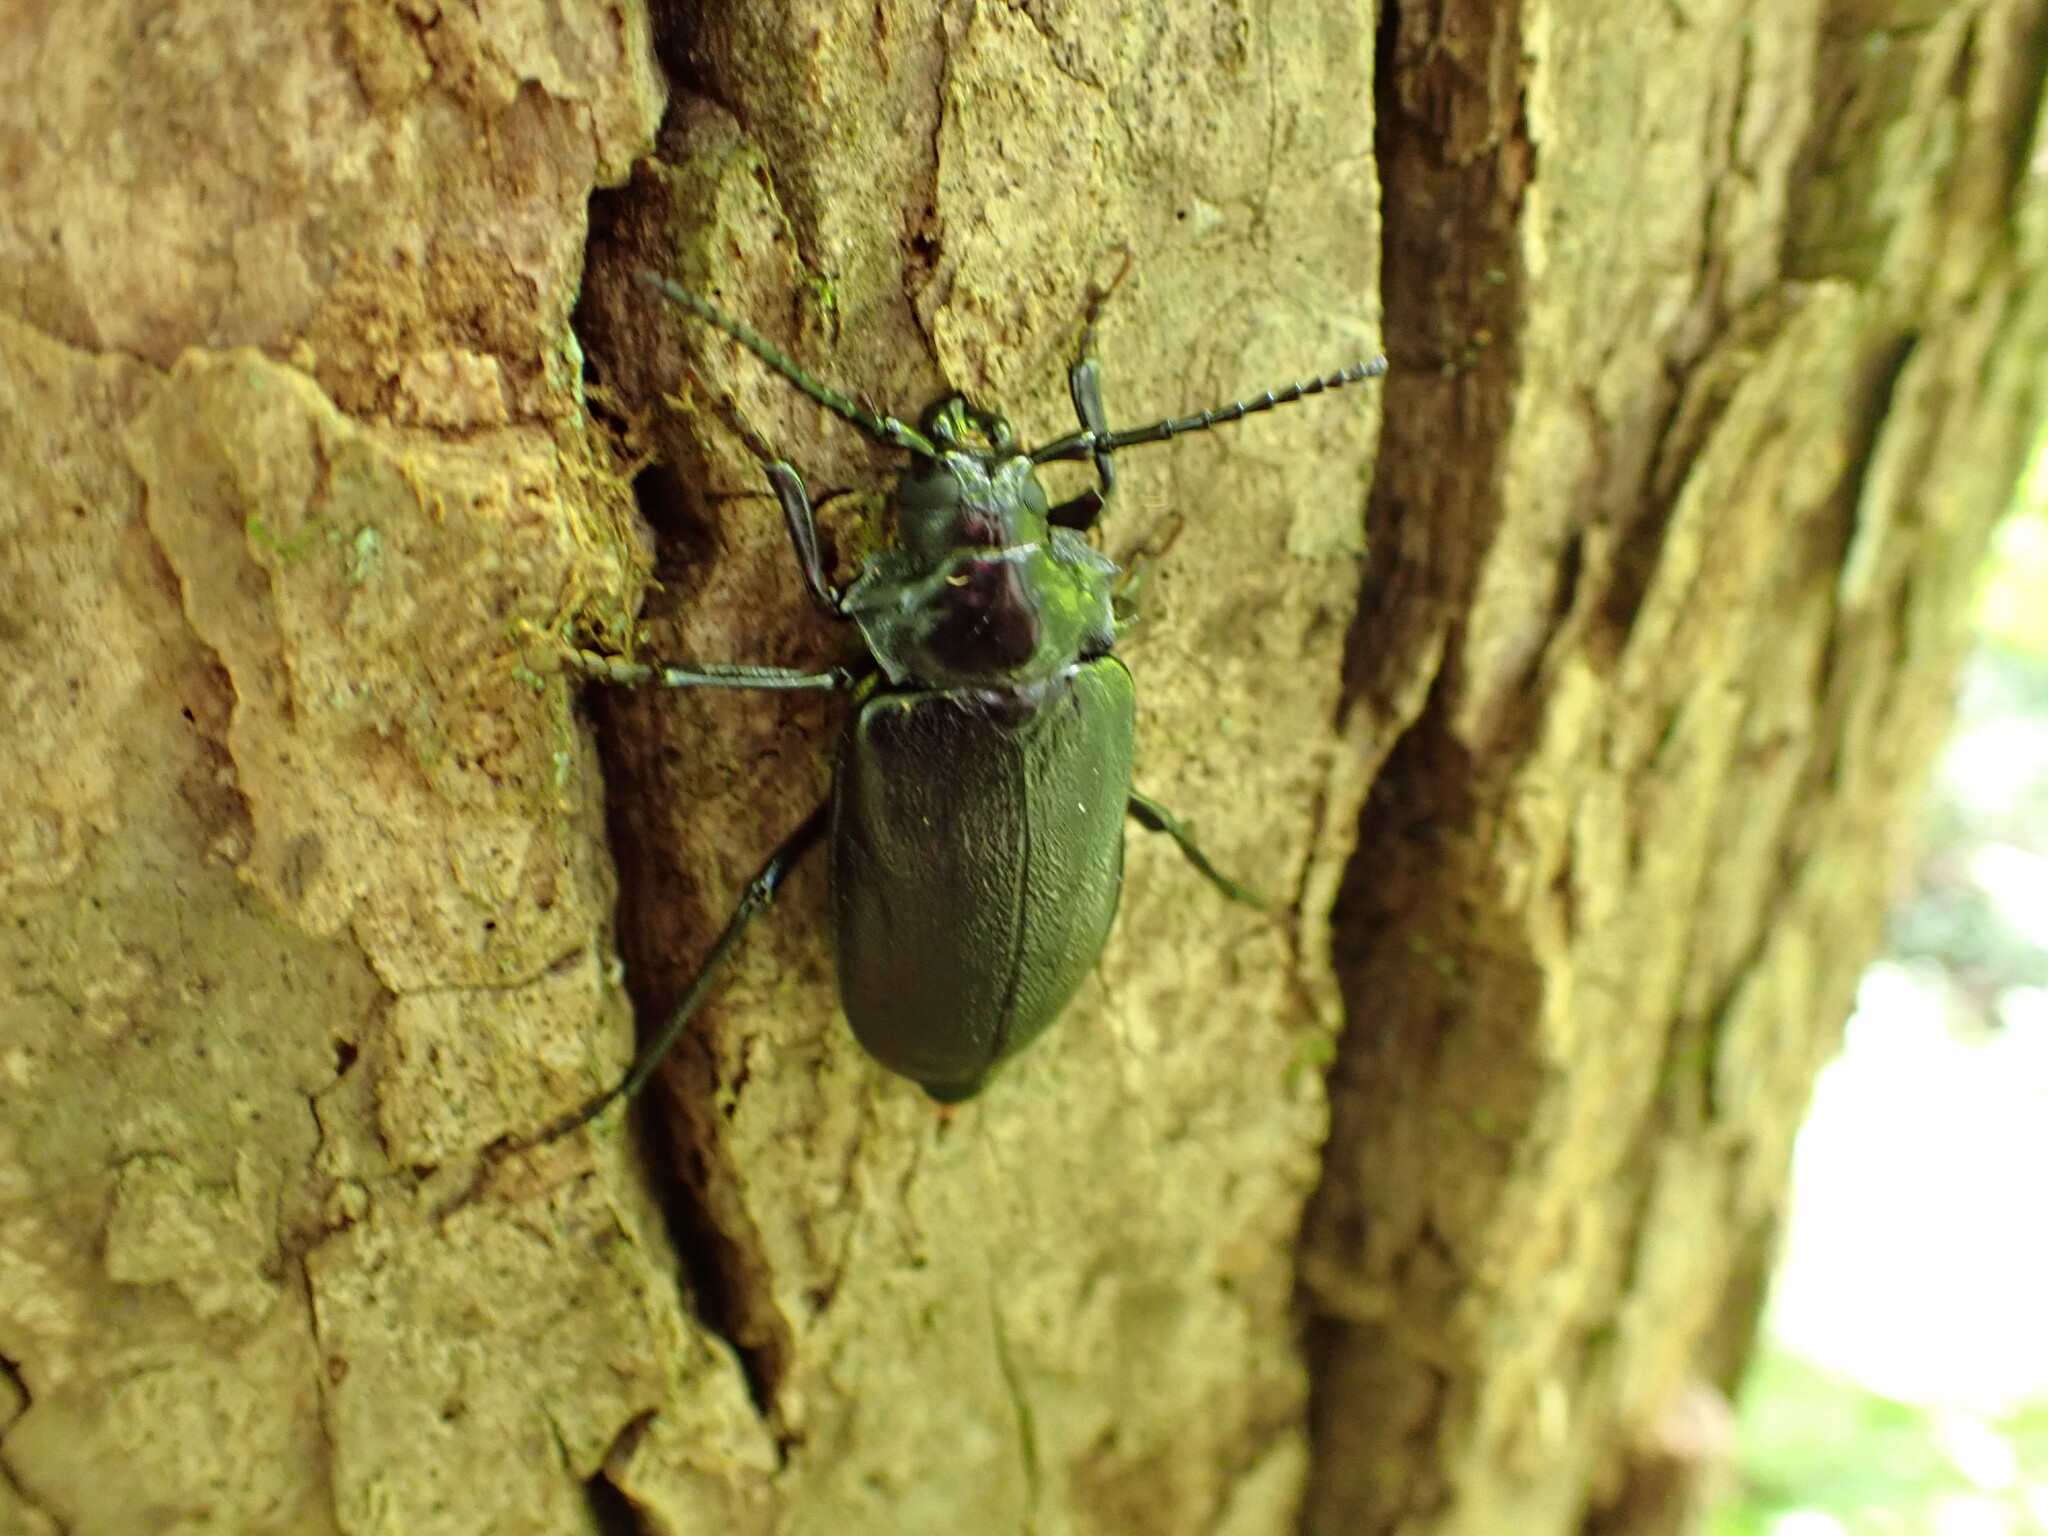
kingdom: Animalia
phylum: Arthropoda
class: Insecta
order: Coleoptera
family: Cerambycidae
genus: Prionus
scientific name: Prionus laticollis
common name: Broad necked prionus
